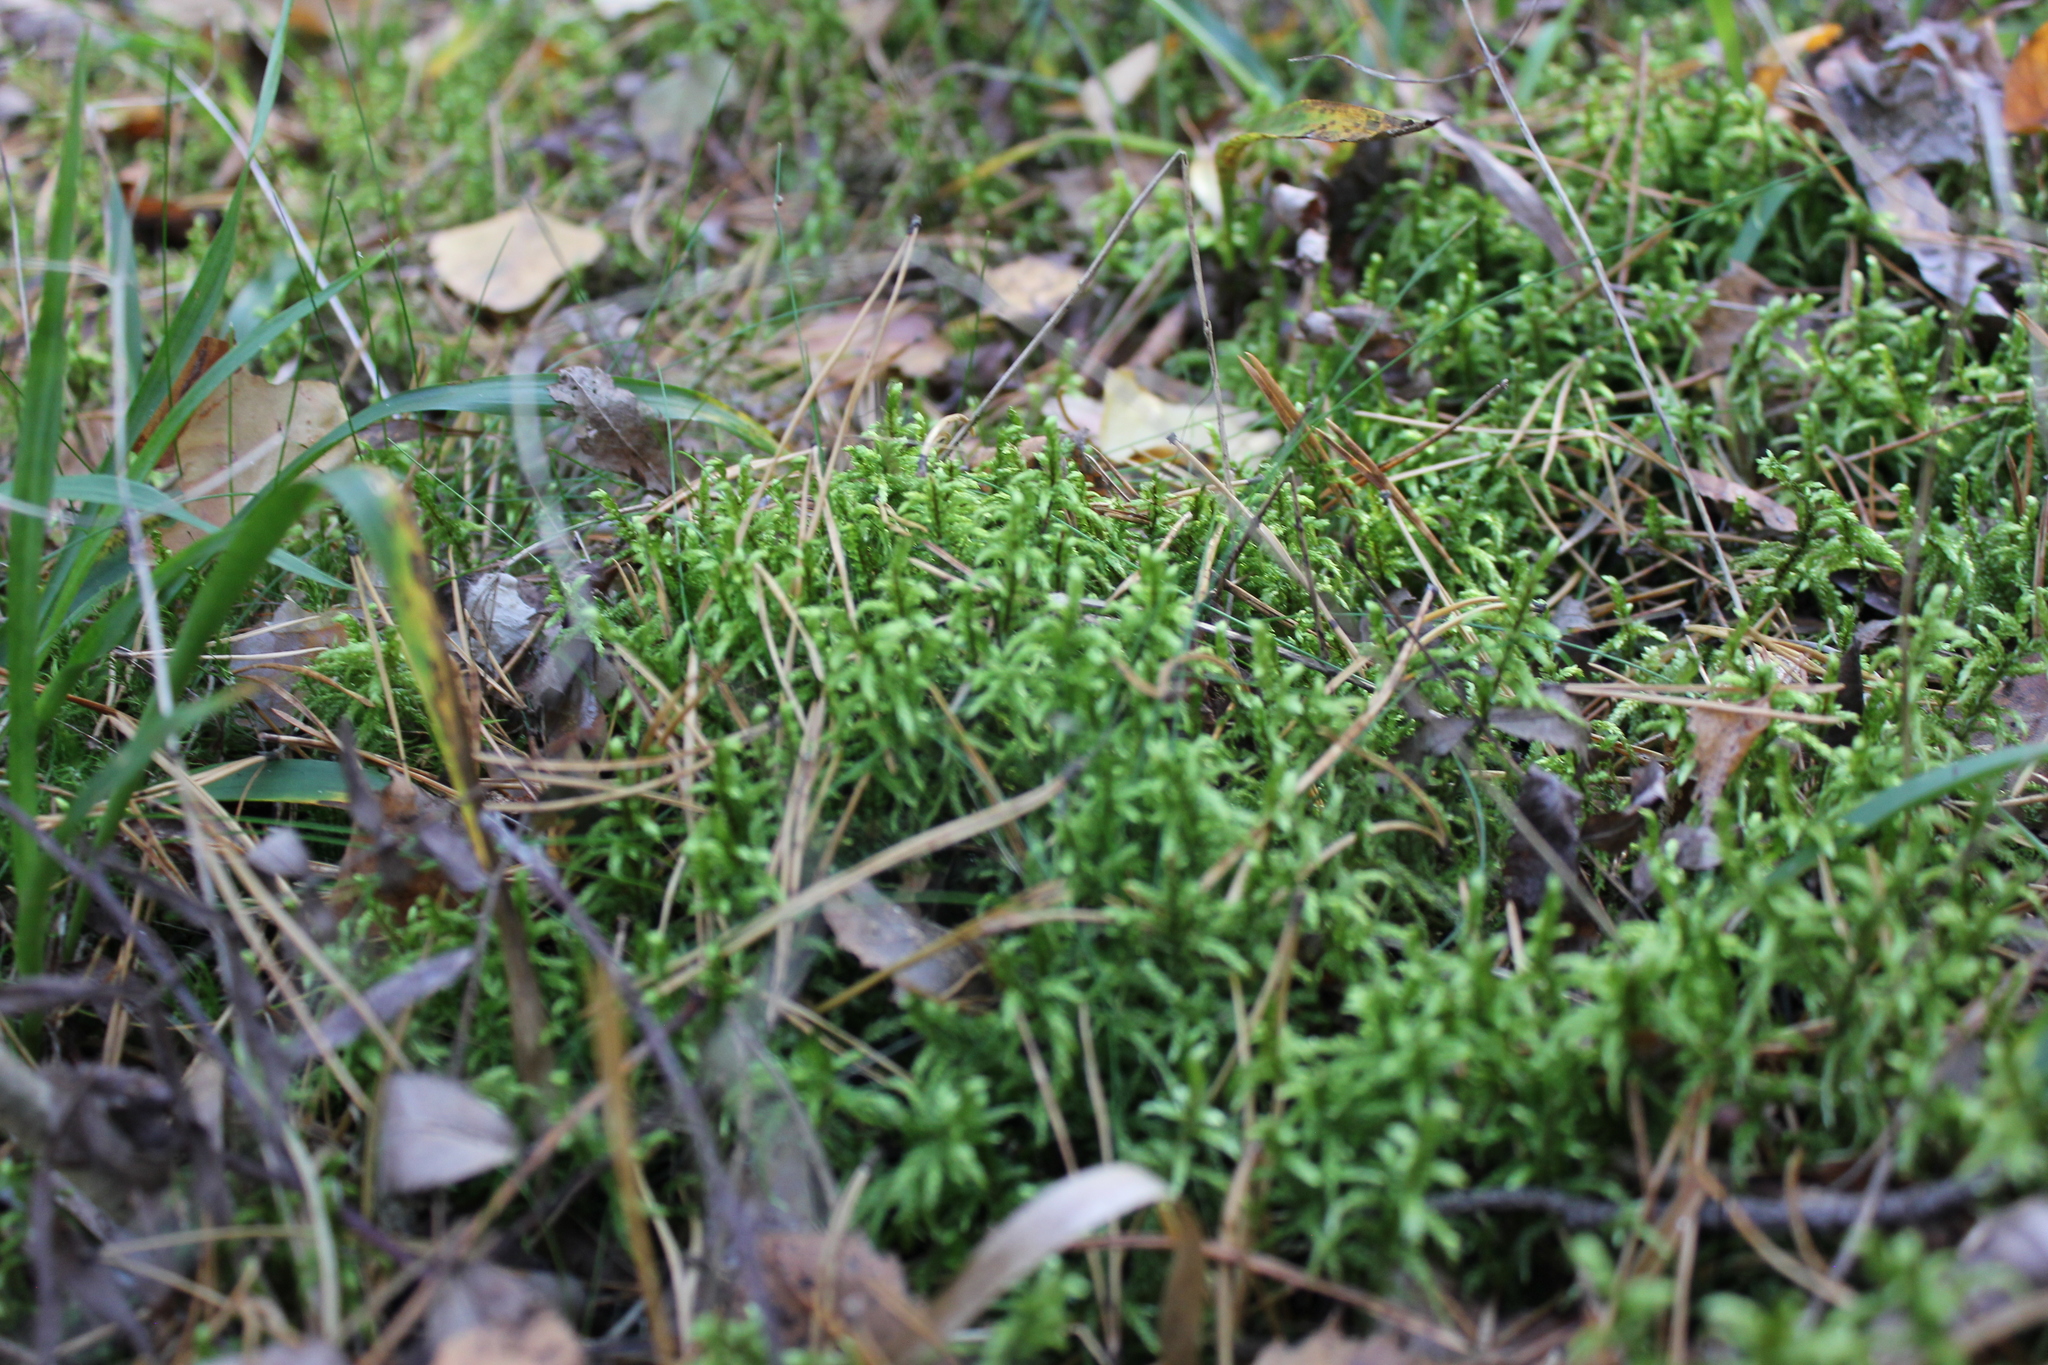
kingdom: Plantae
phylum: Bryophyta
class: Bryopsida
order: Hypnales
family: Hylocomiaceae
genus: Pleurozium
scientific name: Pleurozium schreberi
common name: Red-stemmed feather moss
